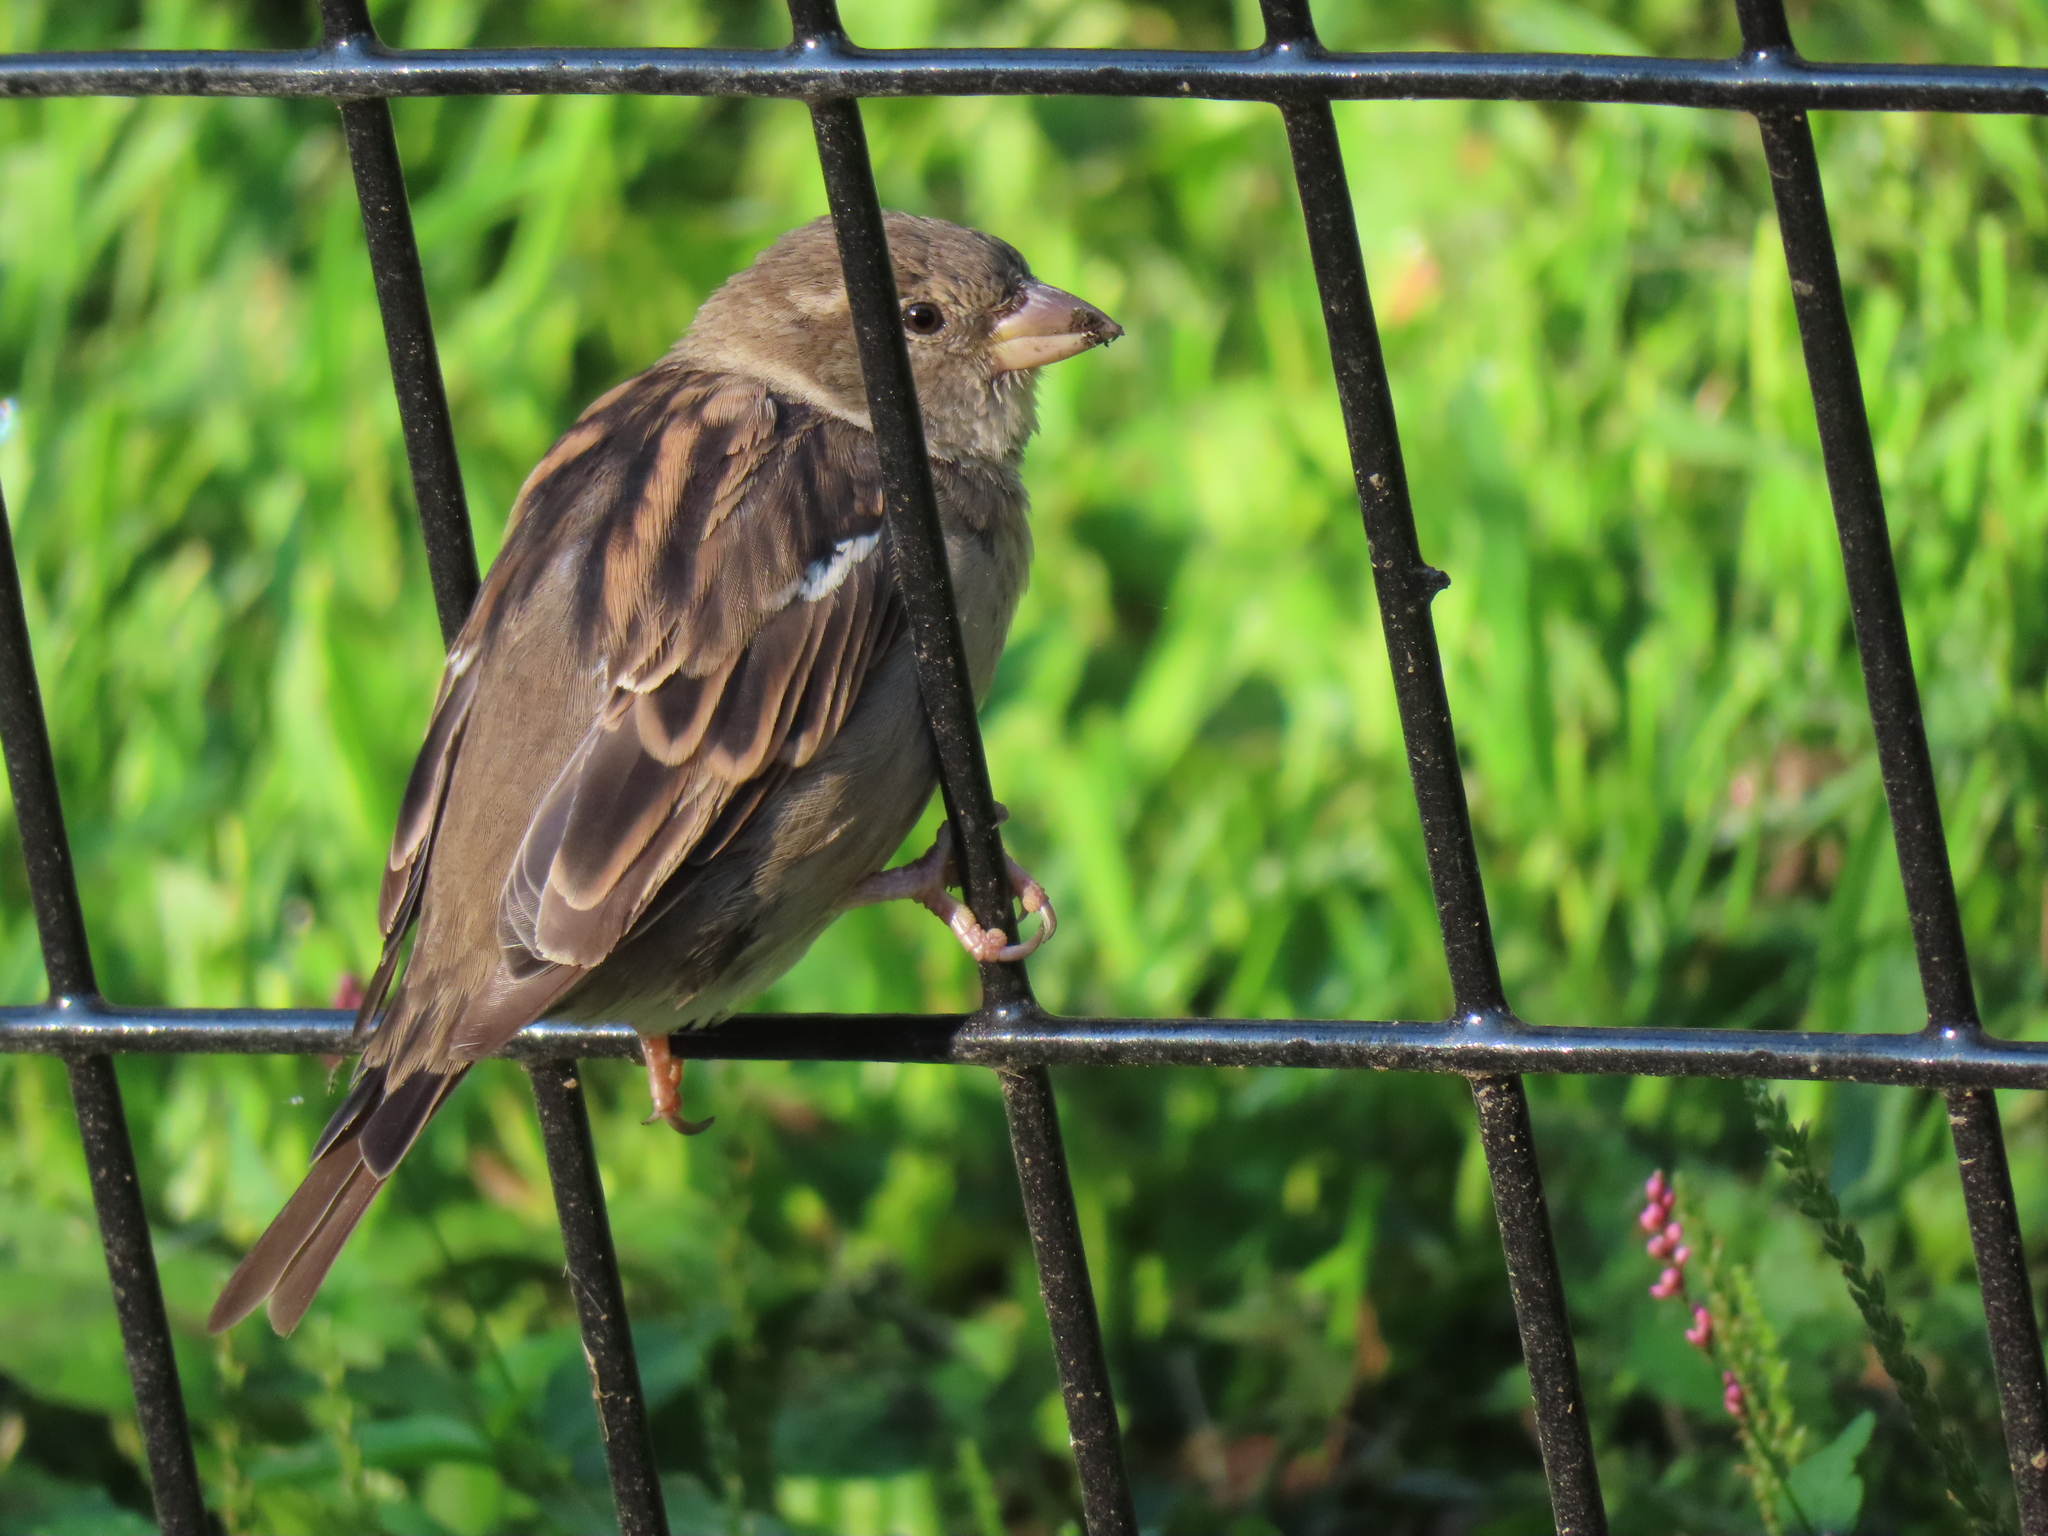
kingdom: Animalia
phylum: Chordata
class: Aves
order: Passeriformes
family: Passeridae
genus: Passer
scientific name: Passer domesticus
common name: House sparrow
